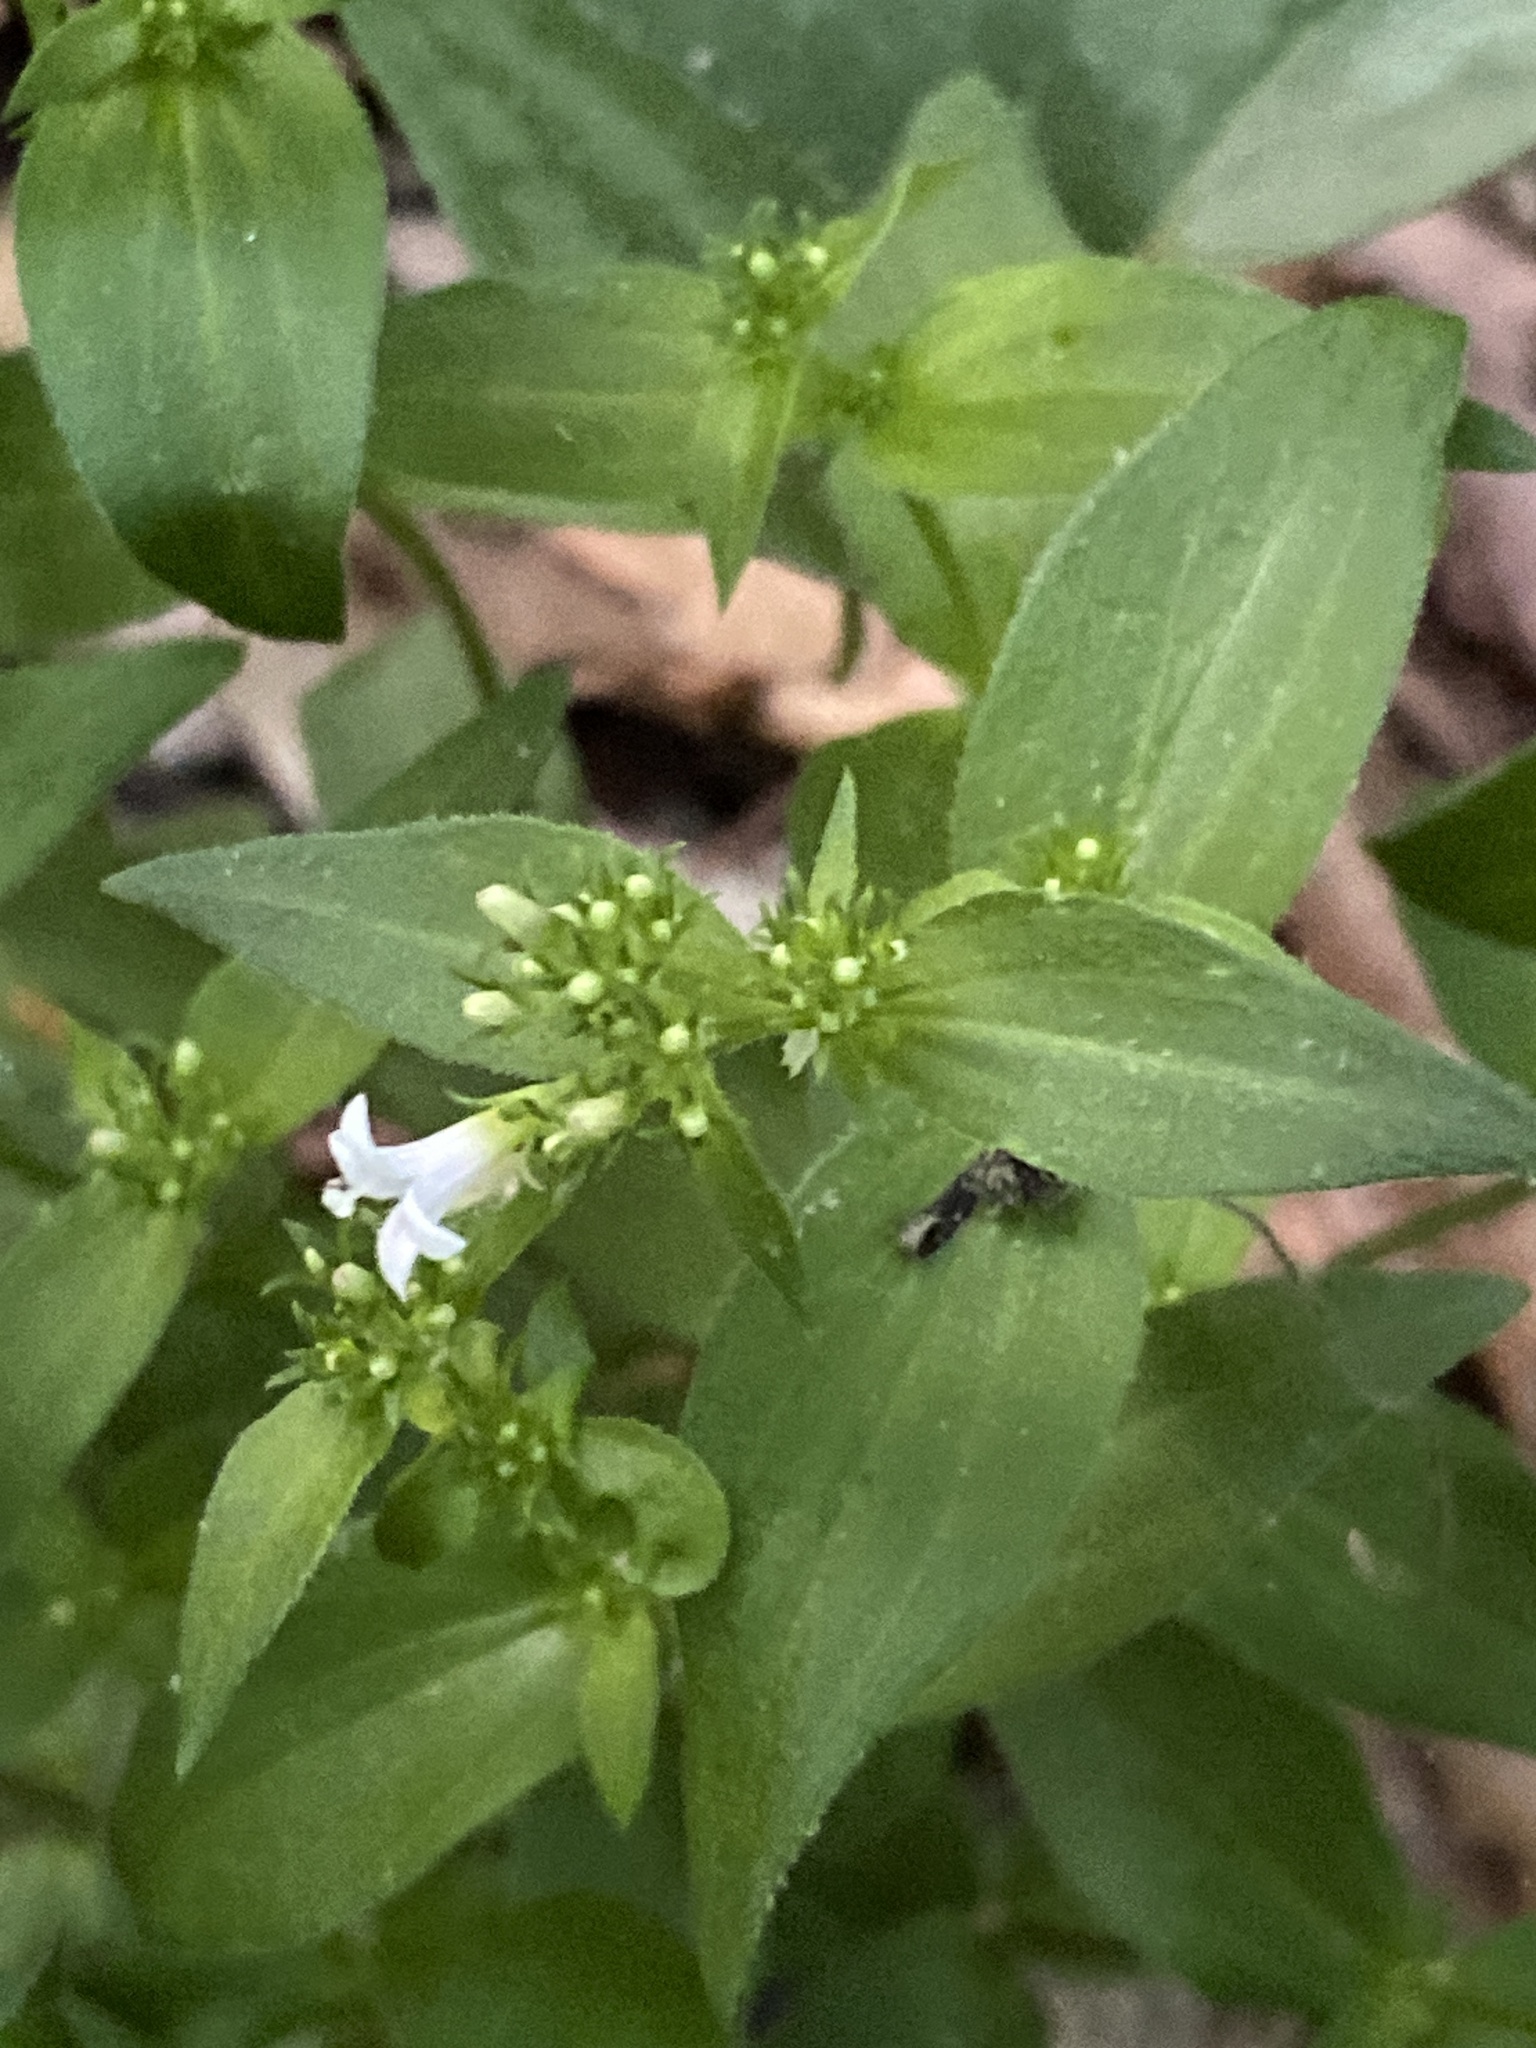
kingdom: Plantae
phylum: Tracheophyta
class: Magnoliopsida
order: Gentianales
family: Rubiaceae
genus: Houstonia
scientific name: Houstonia purpurea
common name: Summer bluet
